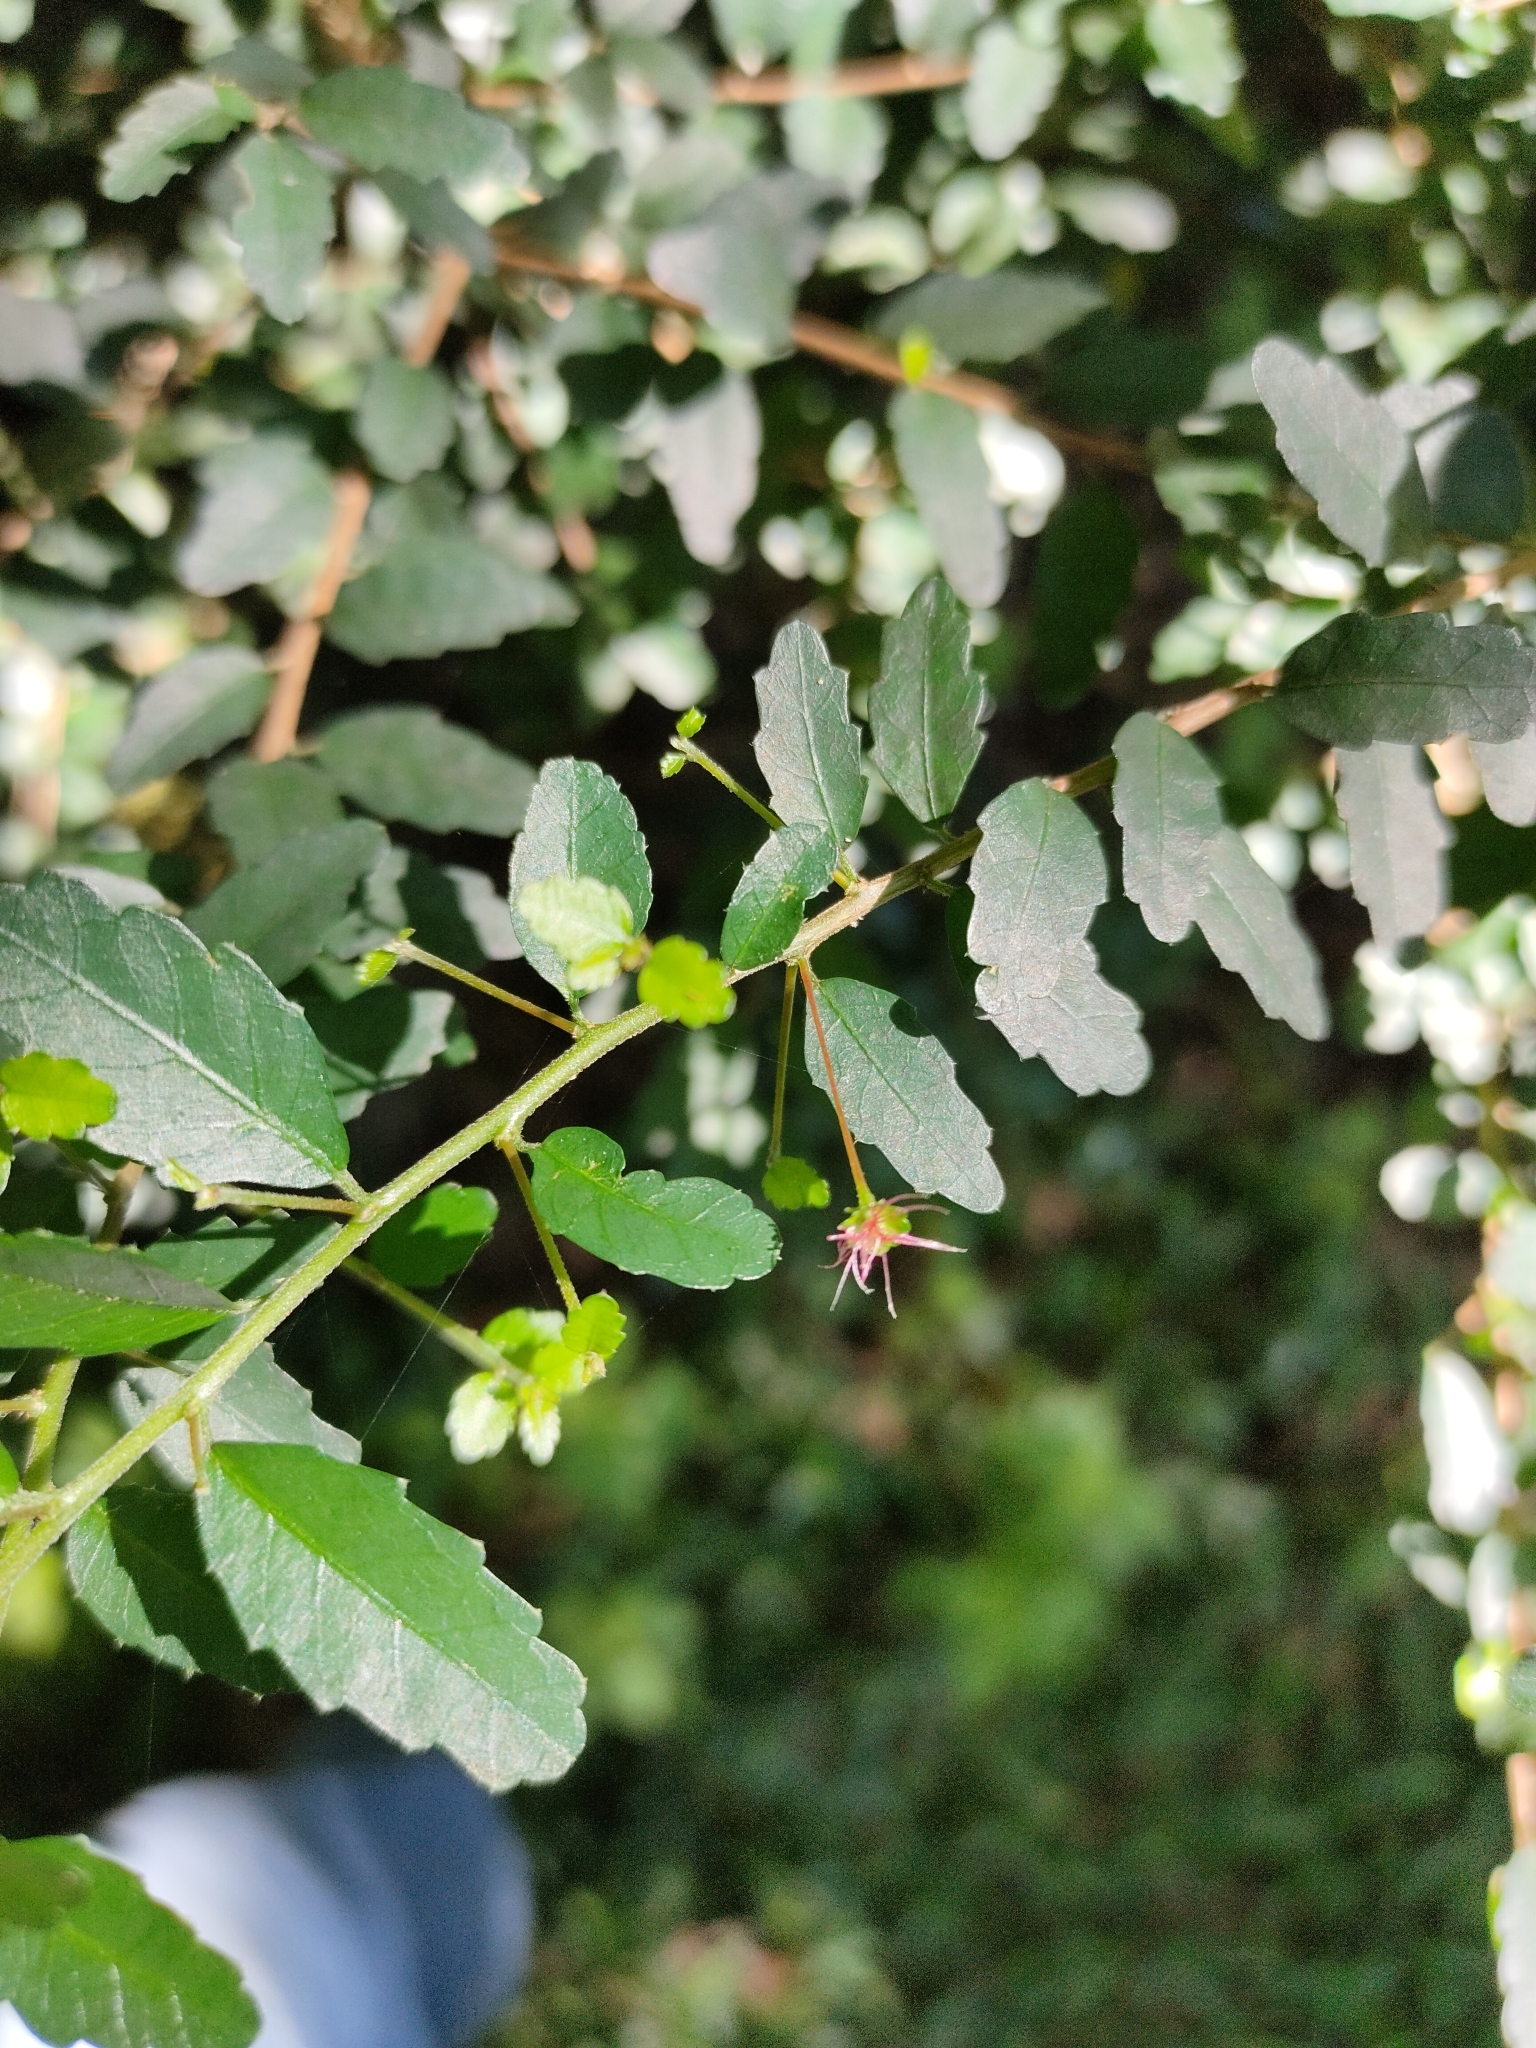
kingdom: Plantae
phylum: Tracheophyta
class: Magnoliopsida
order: Malpighiales
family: Euphorbiaceae
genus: Acalypha
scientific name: Acalypha capillipes
